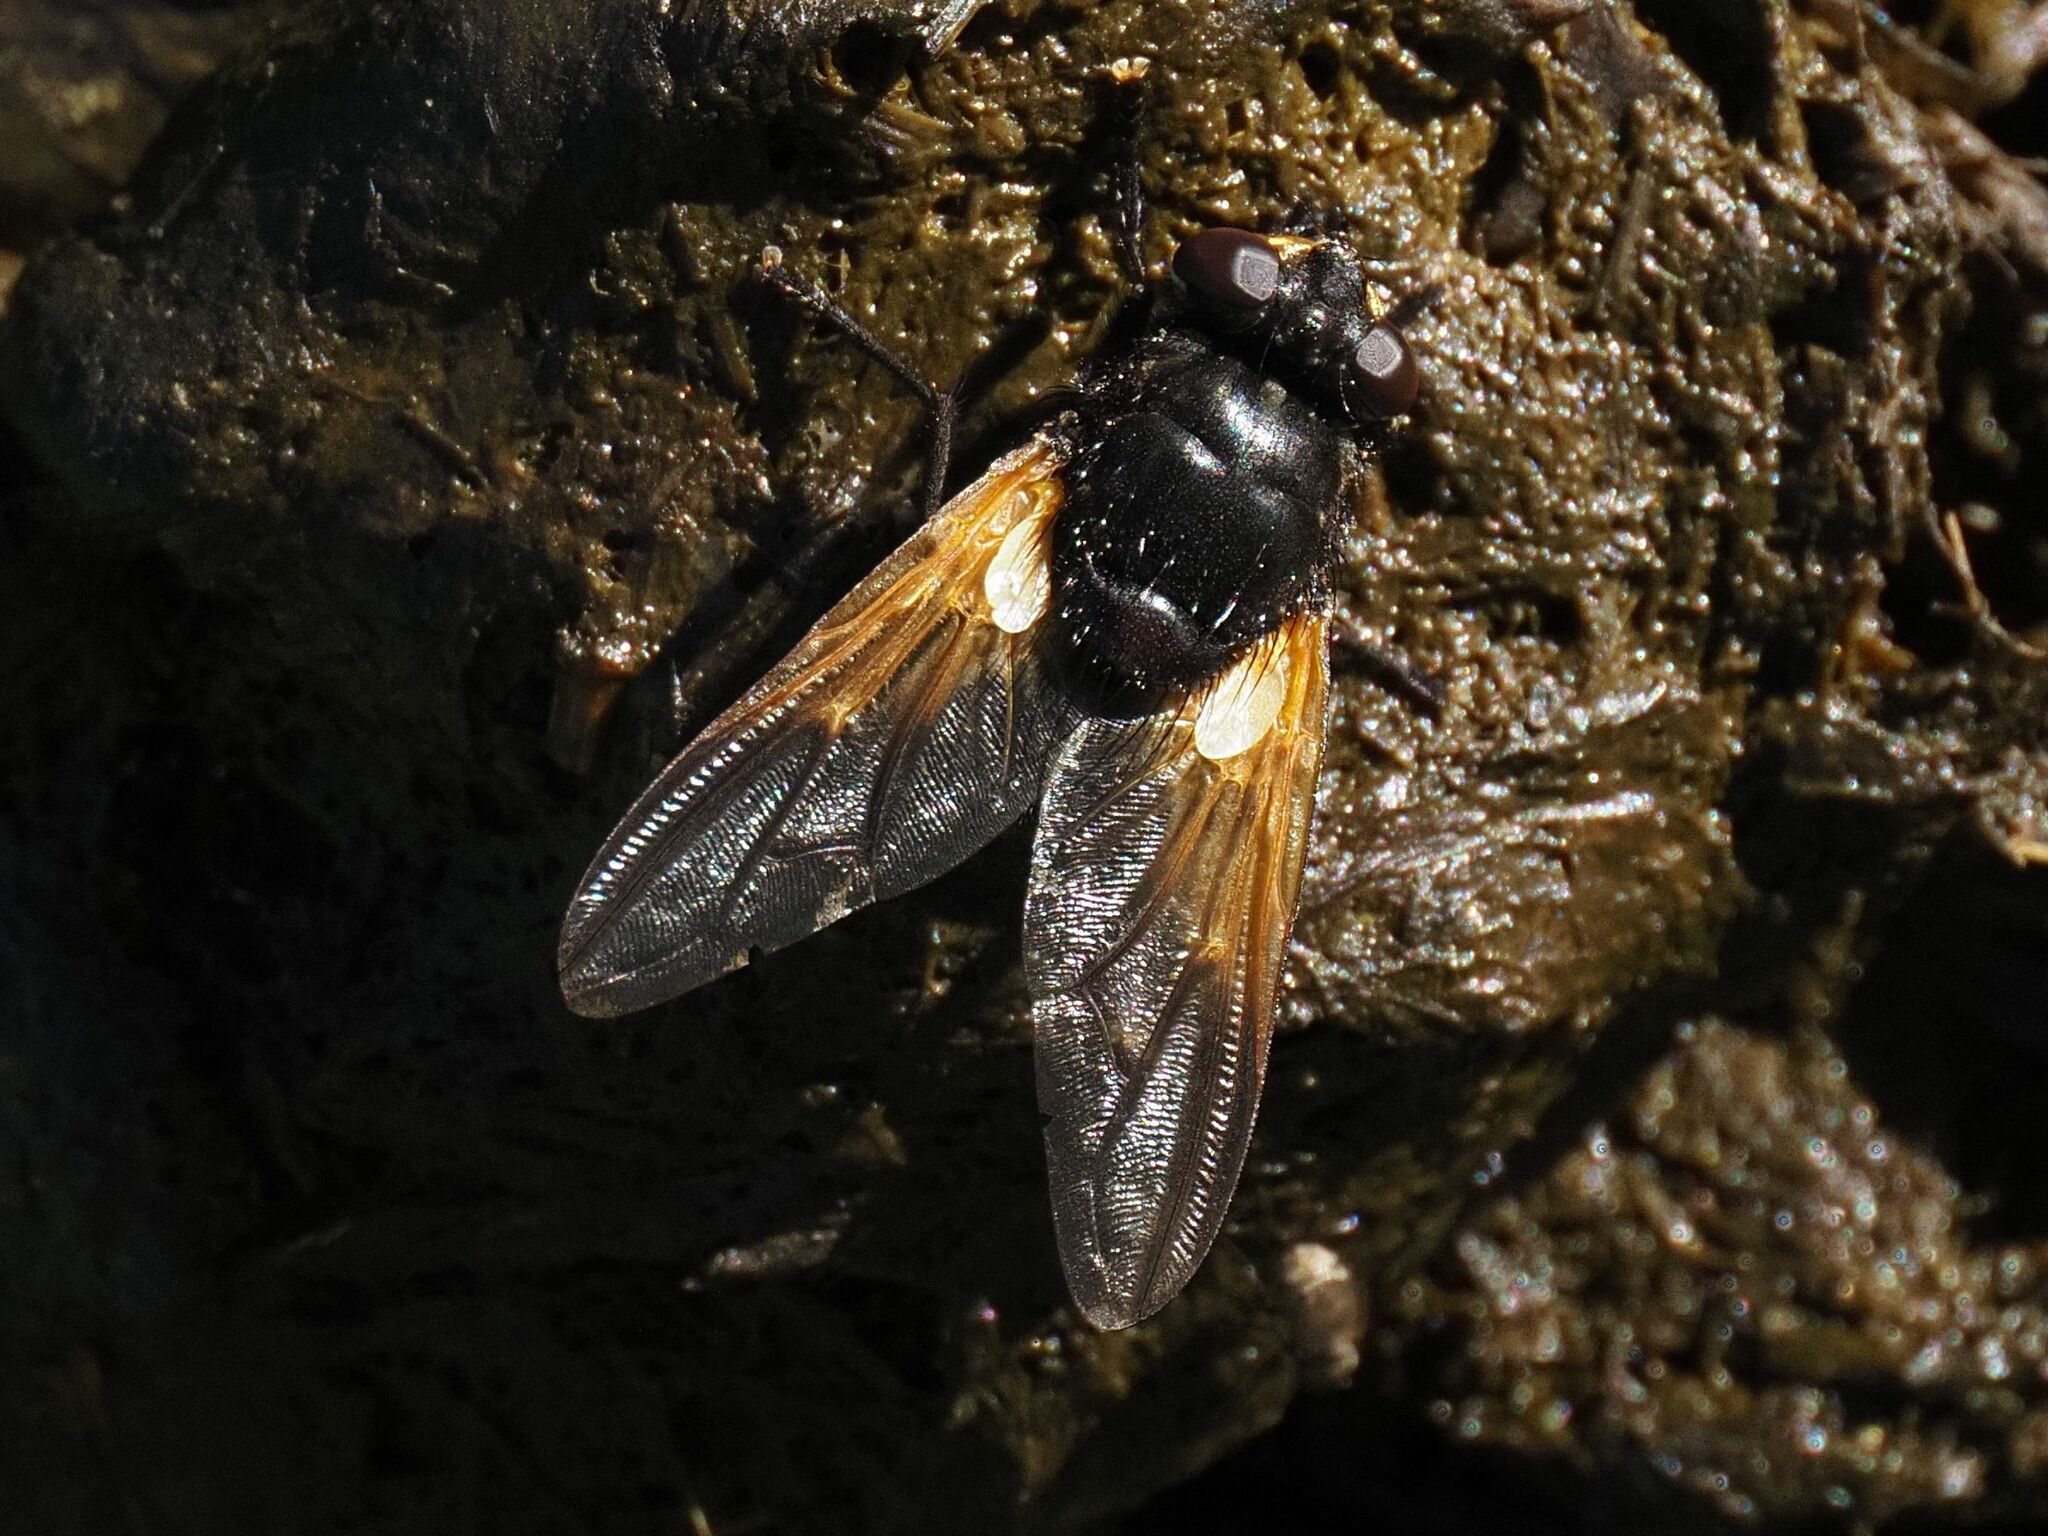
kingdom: Animalia
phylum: Arthropoda
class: Insecta
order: Diptera
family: Muscidae
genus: Mesembrina
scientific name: Mesembrina meridiana
